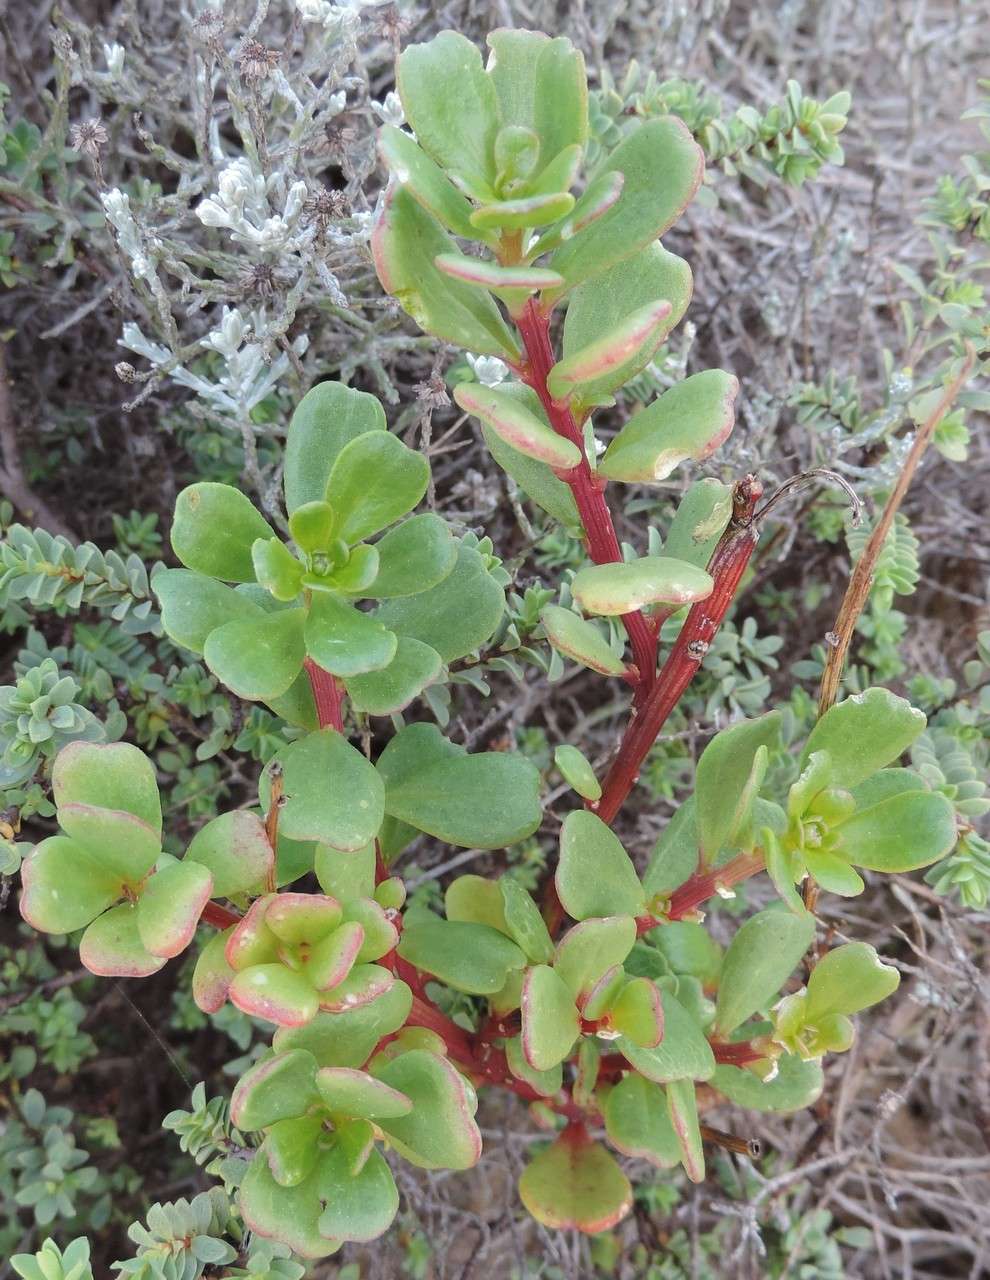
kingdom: Plantae
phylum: Tracheophyta
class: Magnoliopsida
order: Celastrales
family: Celastraceae
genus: Stackhousia
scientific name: Stackhousia spathulata
